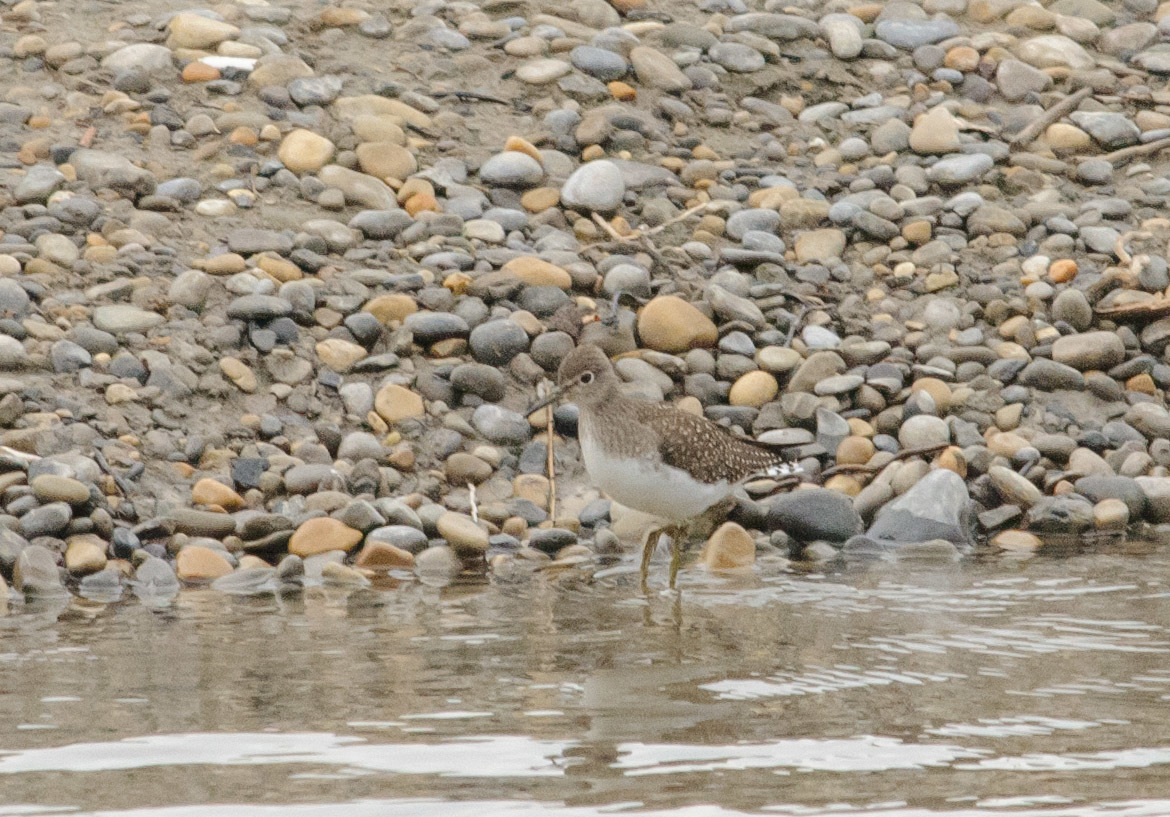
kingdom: Animalia
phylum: Chordata
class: Aves
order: Charadriiformes
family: Scolopacidae
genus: Tringa
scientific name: Tringa solitaria
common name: Solitary sandpiper
